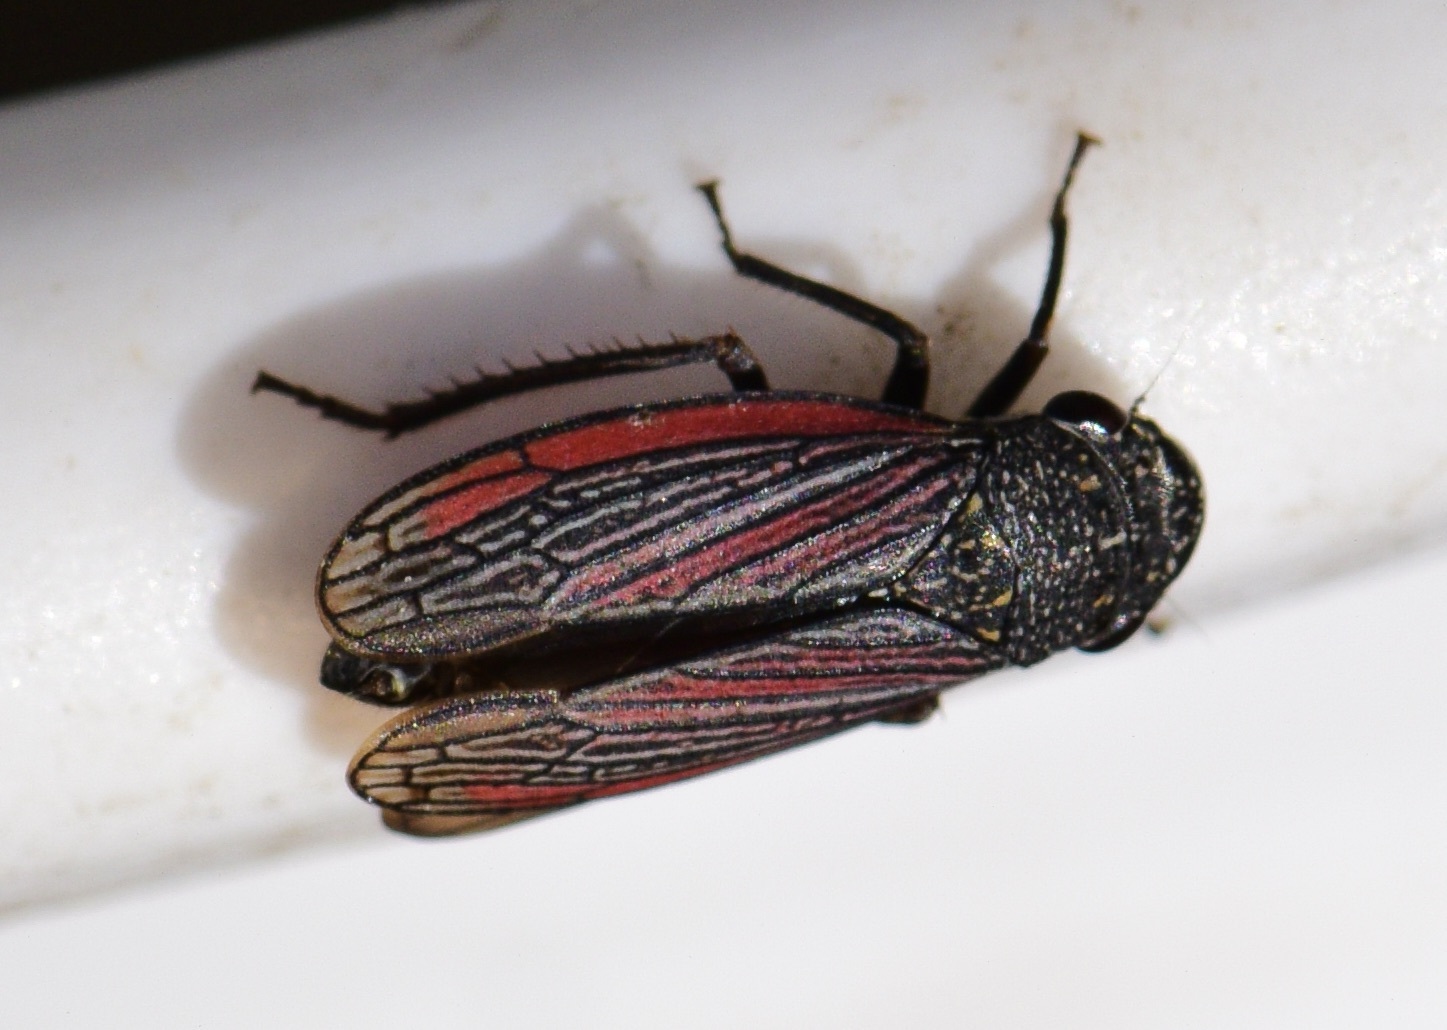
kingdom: Animalia
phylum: Arthropoda
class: Insecta
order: Hemiptera
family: Cicadellidae
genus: Cuerna
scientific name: Cuerna striata
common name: Striped leafhopper
